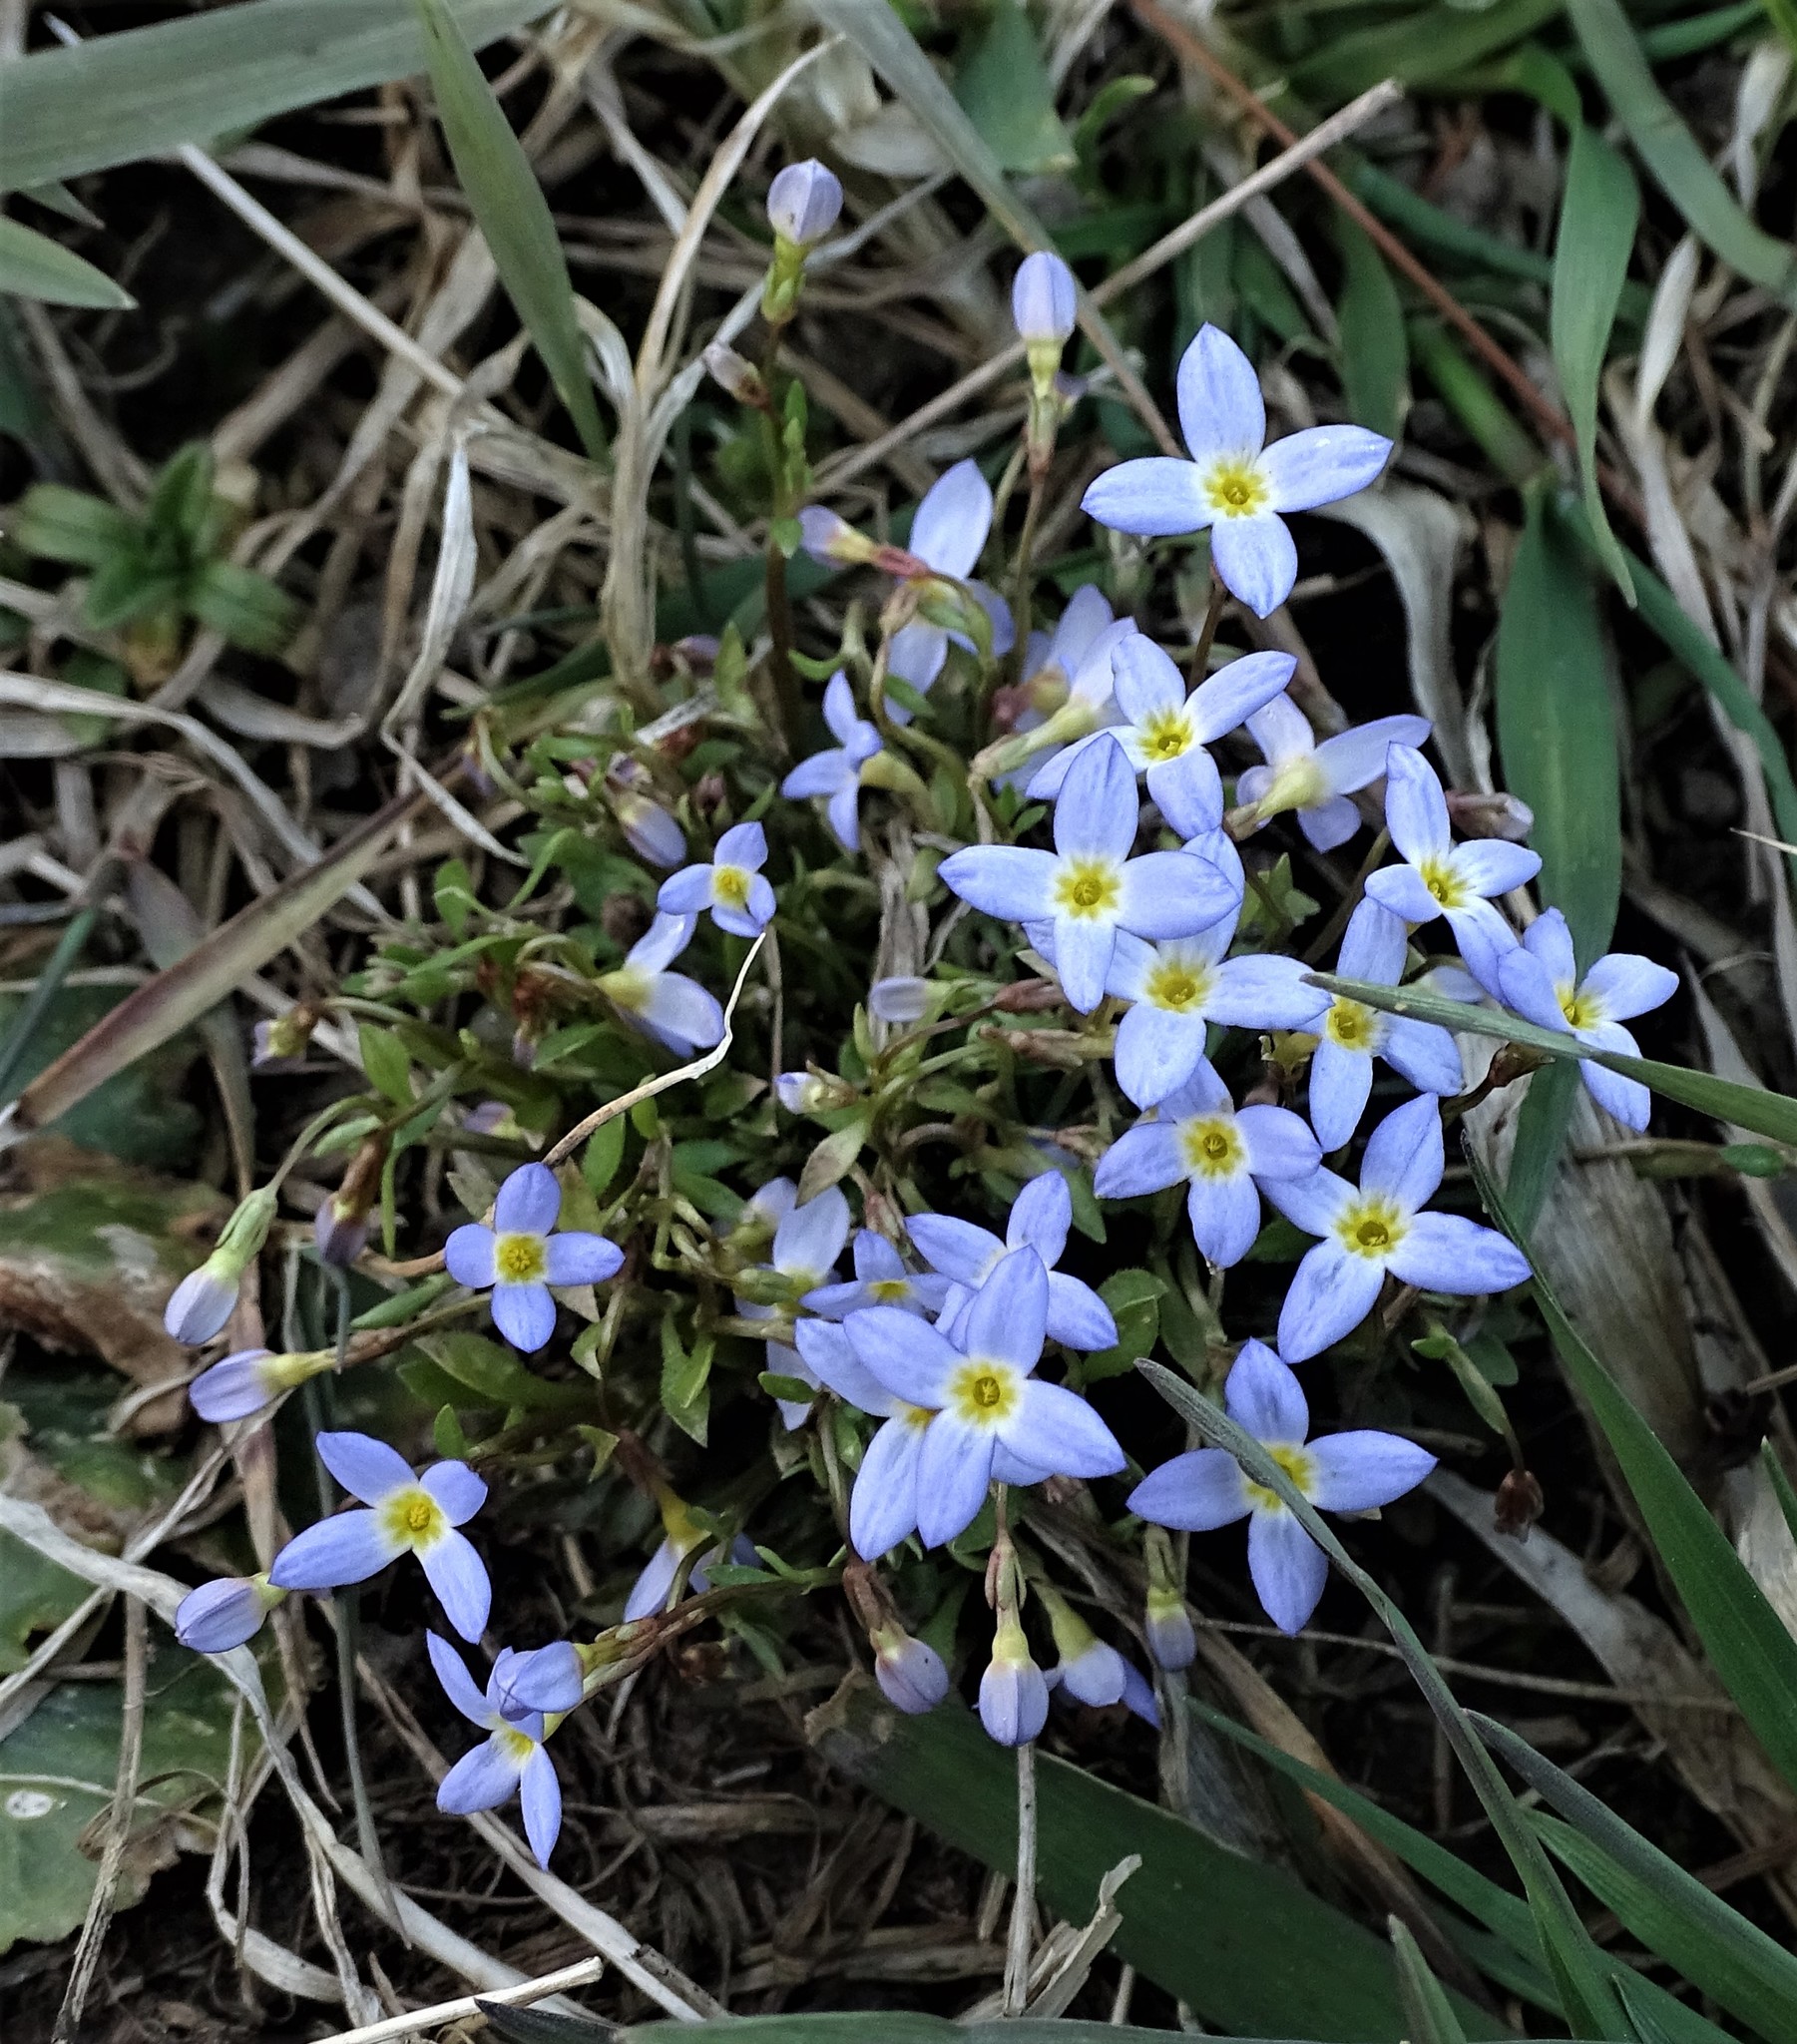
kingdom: Plantae
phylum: Tracheophyta
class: Magnoliopsida
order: Gentianales
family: Rubiaceae
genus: Houstonia
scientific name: Houstonia caerulea
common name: Bluets
